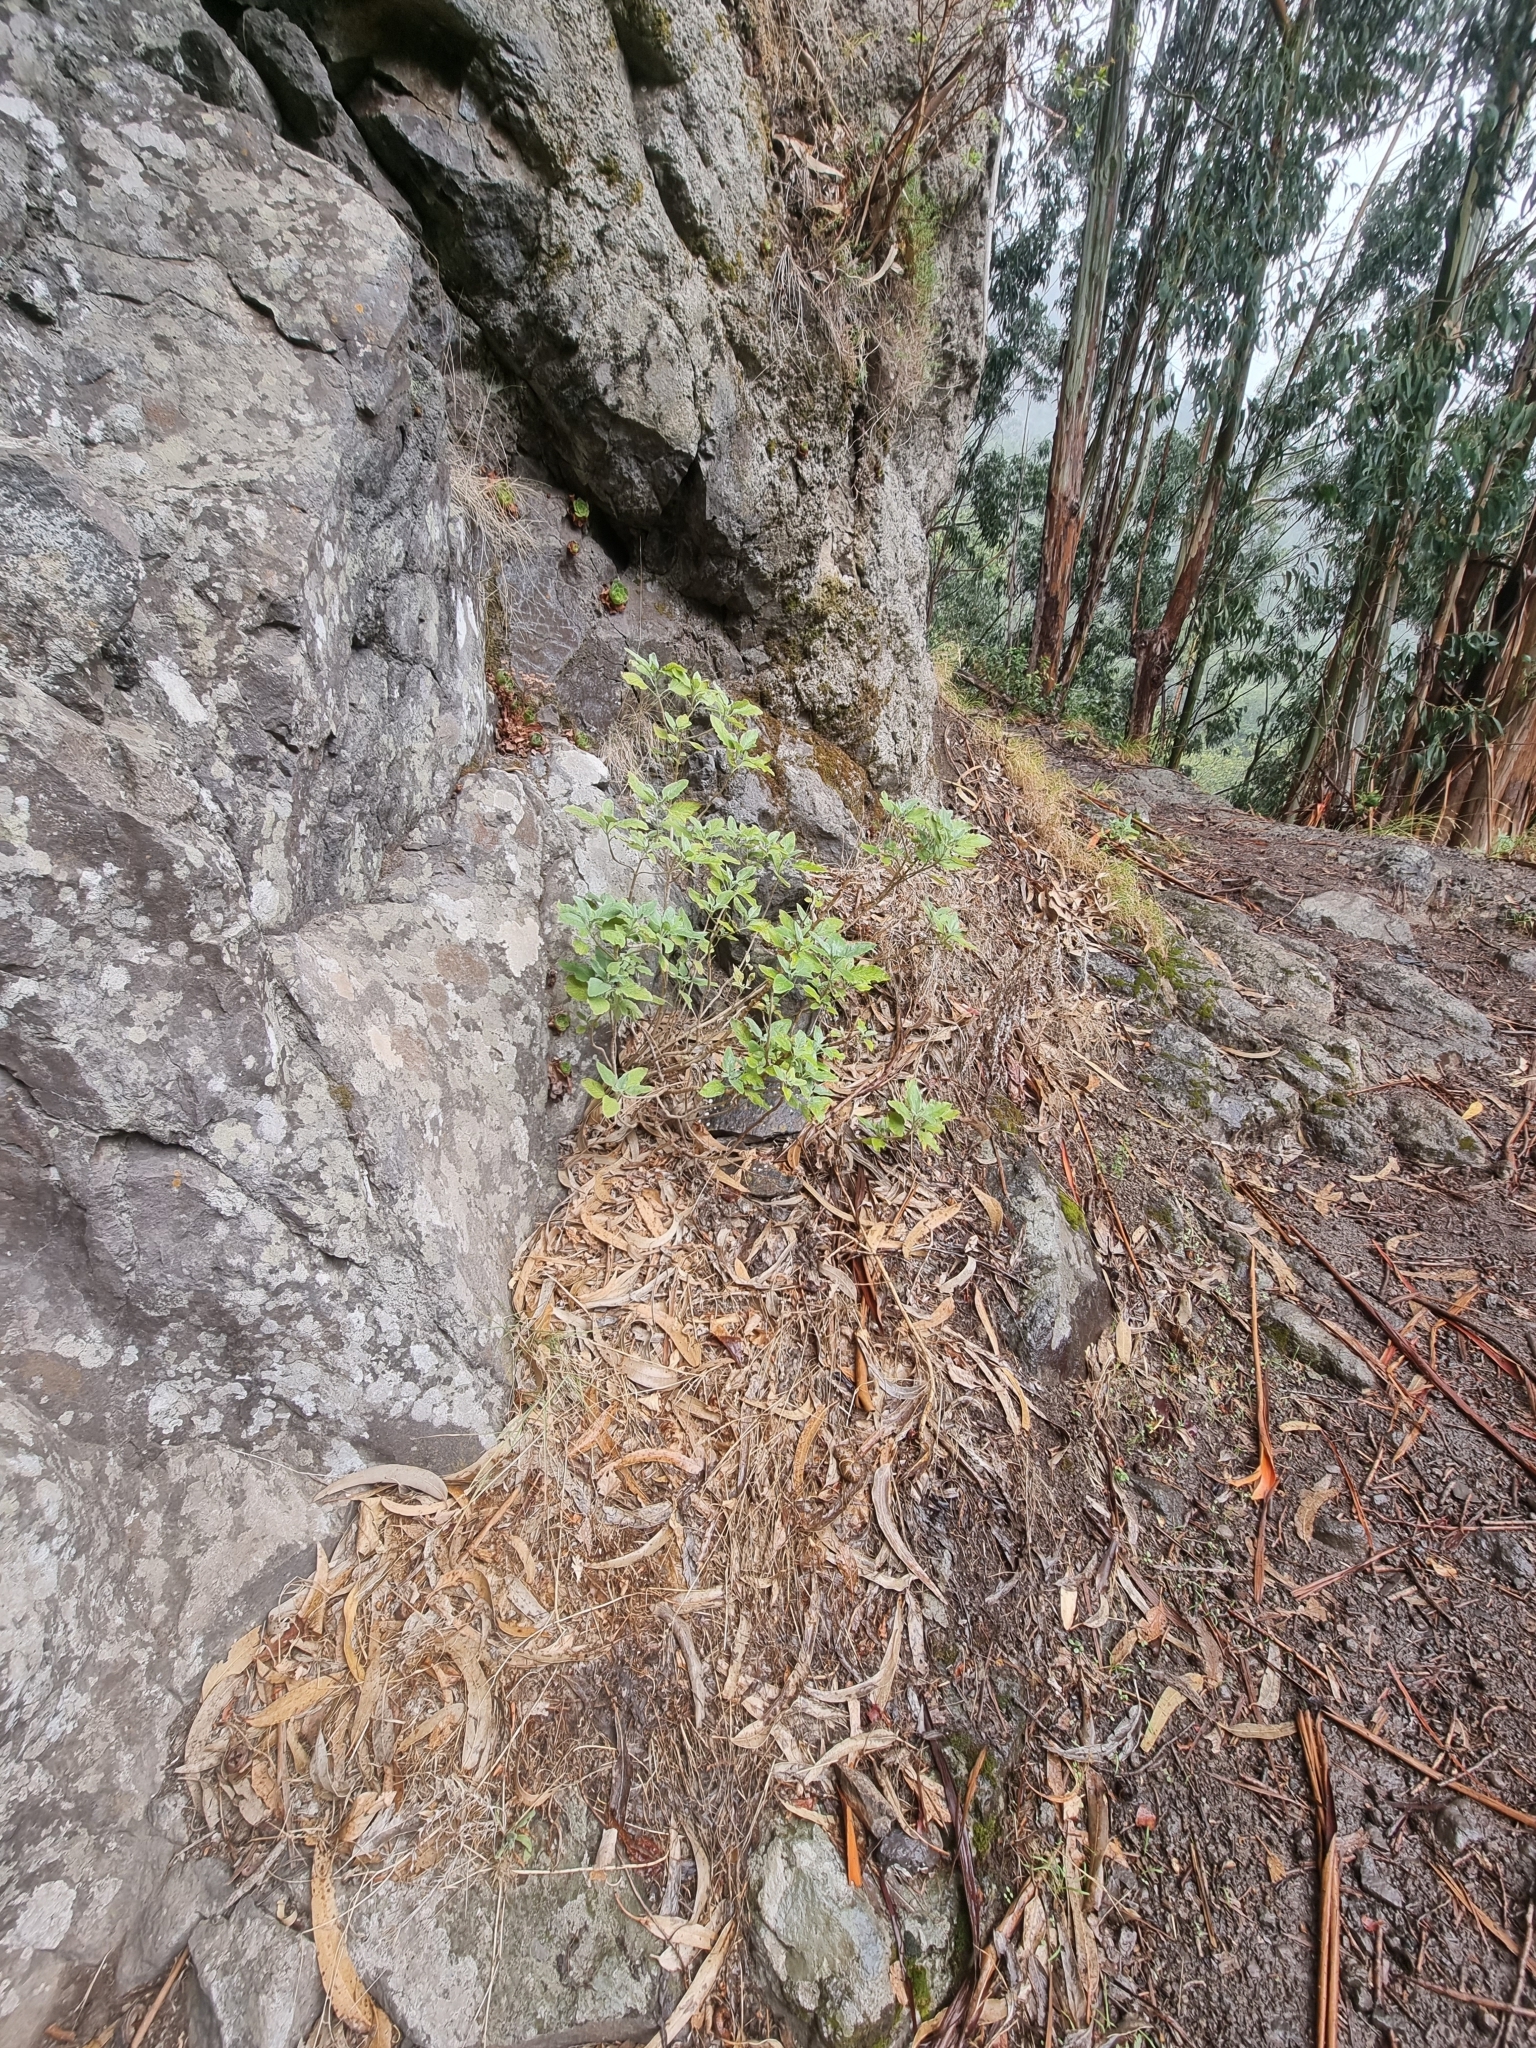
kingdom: Plantae
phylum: Tracheophyta
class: Magnoliopsida
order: Lamiales
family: Lamiaceae
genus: Teucrium
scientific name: Teucrium betonicum
